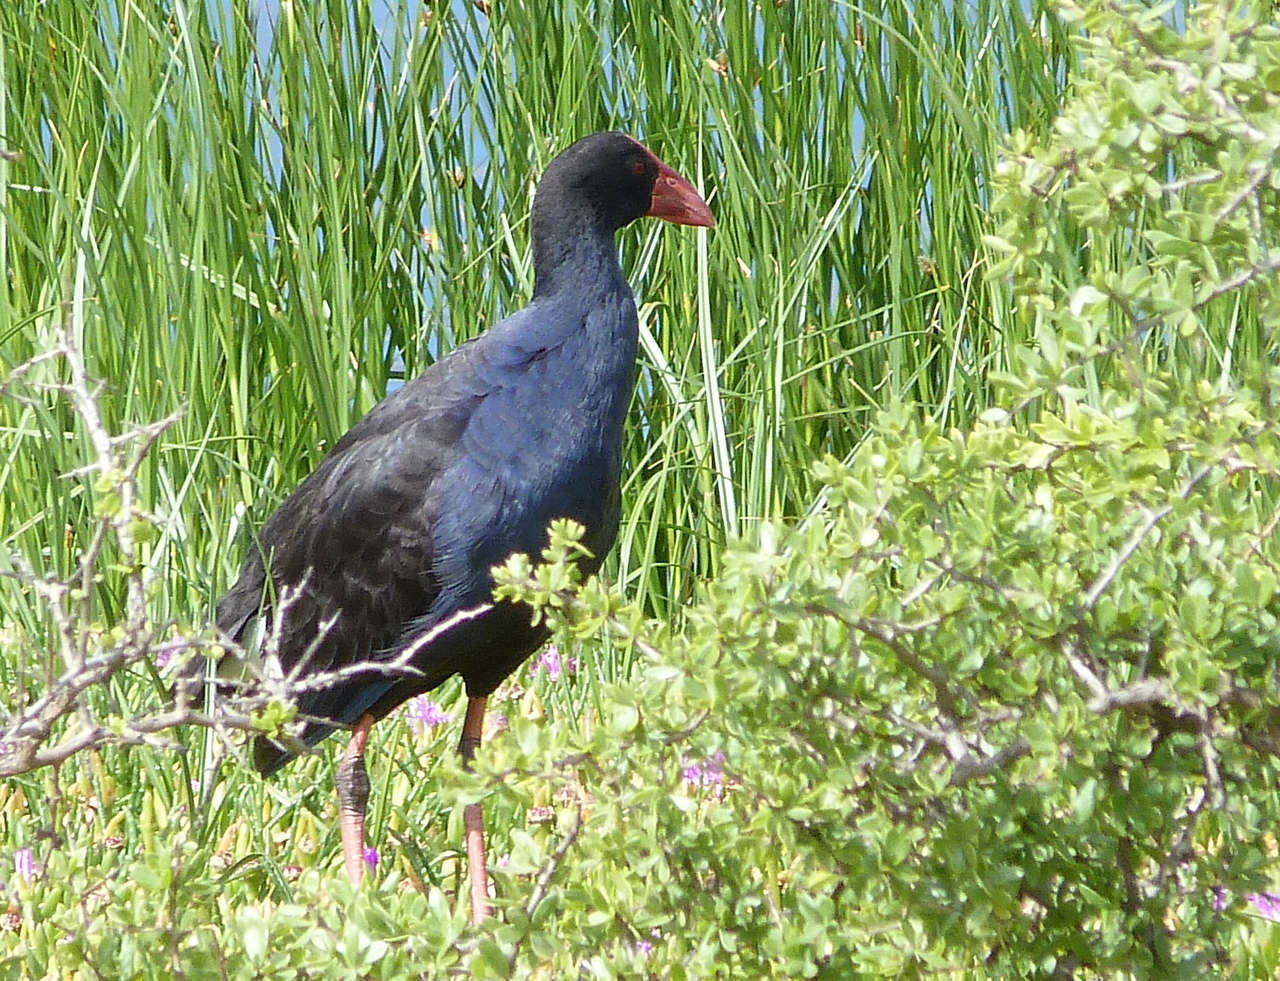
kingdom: Animalia
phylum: Chordata
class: Aves
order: Gruiformes
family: Rallidae
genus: Porphyrio
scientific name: Porphyrio melanotus
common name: Australasian swamphen
